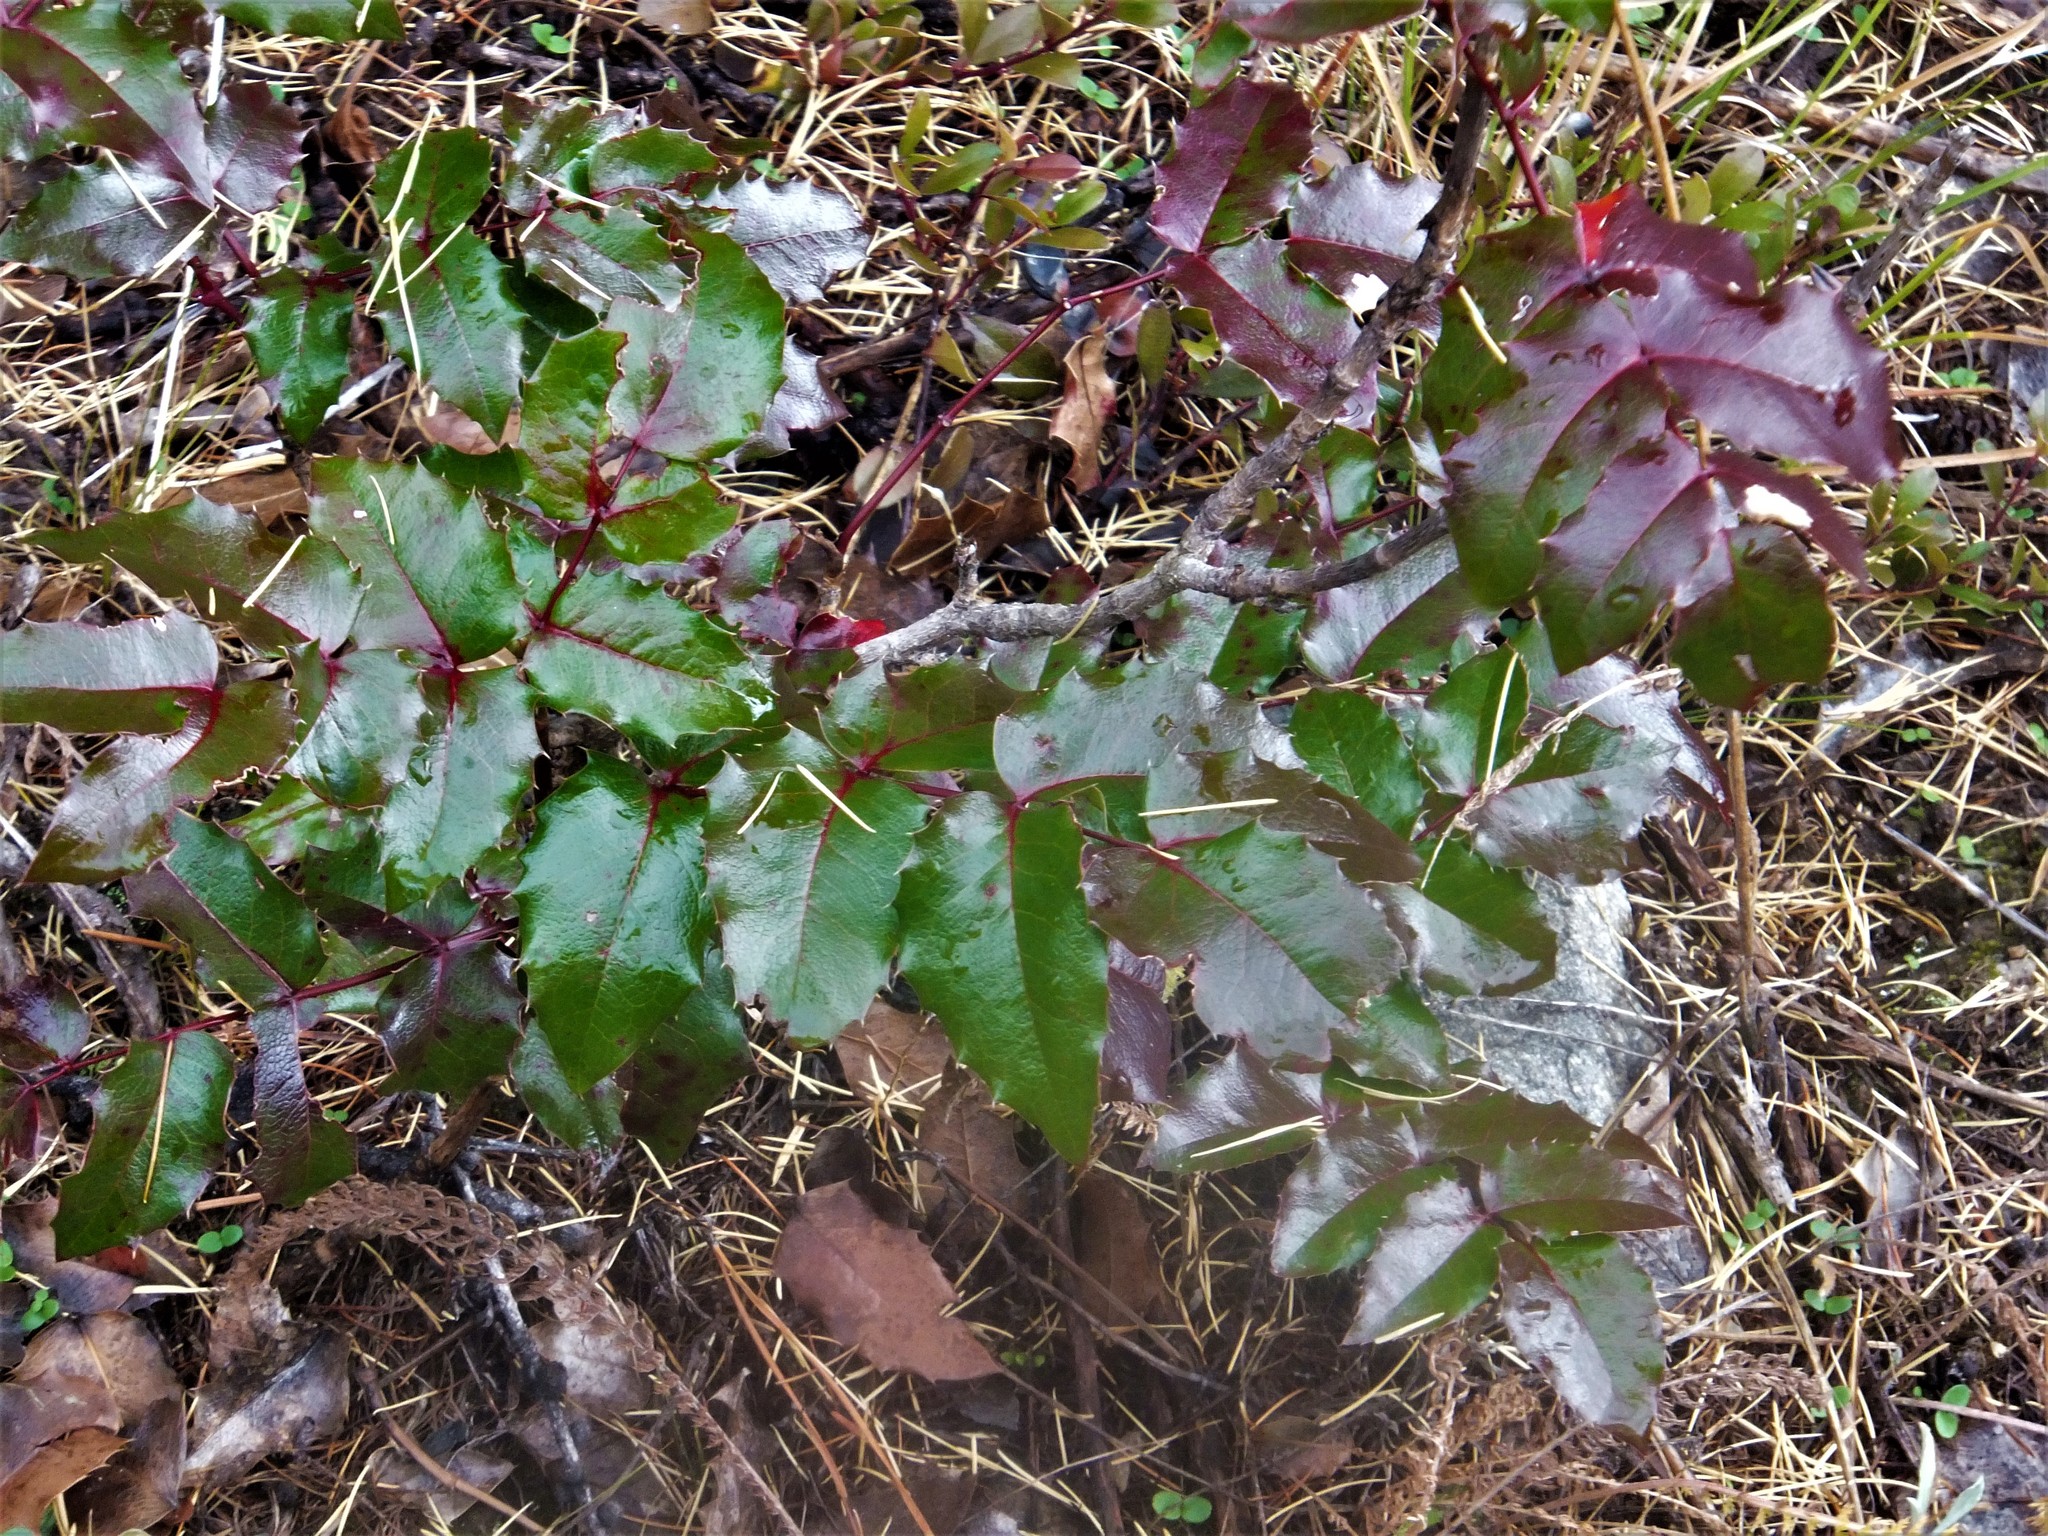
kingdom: Plantae
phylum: Tracheophyta
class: Magnoliopsida
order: Ranunculales
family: Berberidaceae
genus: Mahonia
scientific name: Mahonia aquifolium
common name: Oregon-grape
